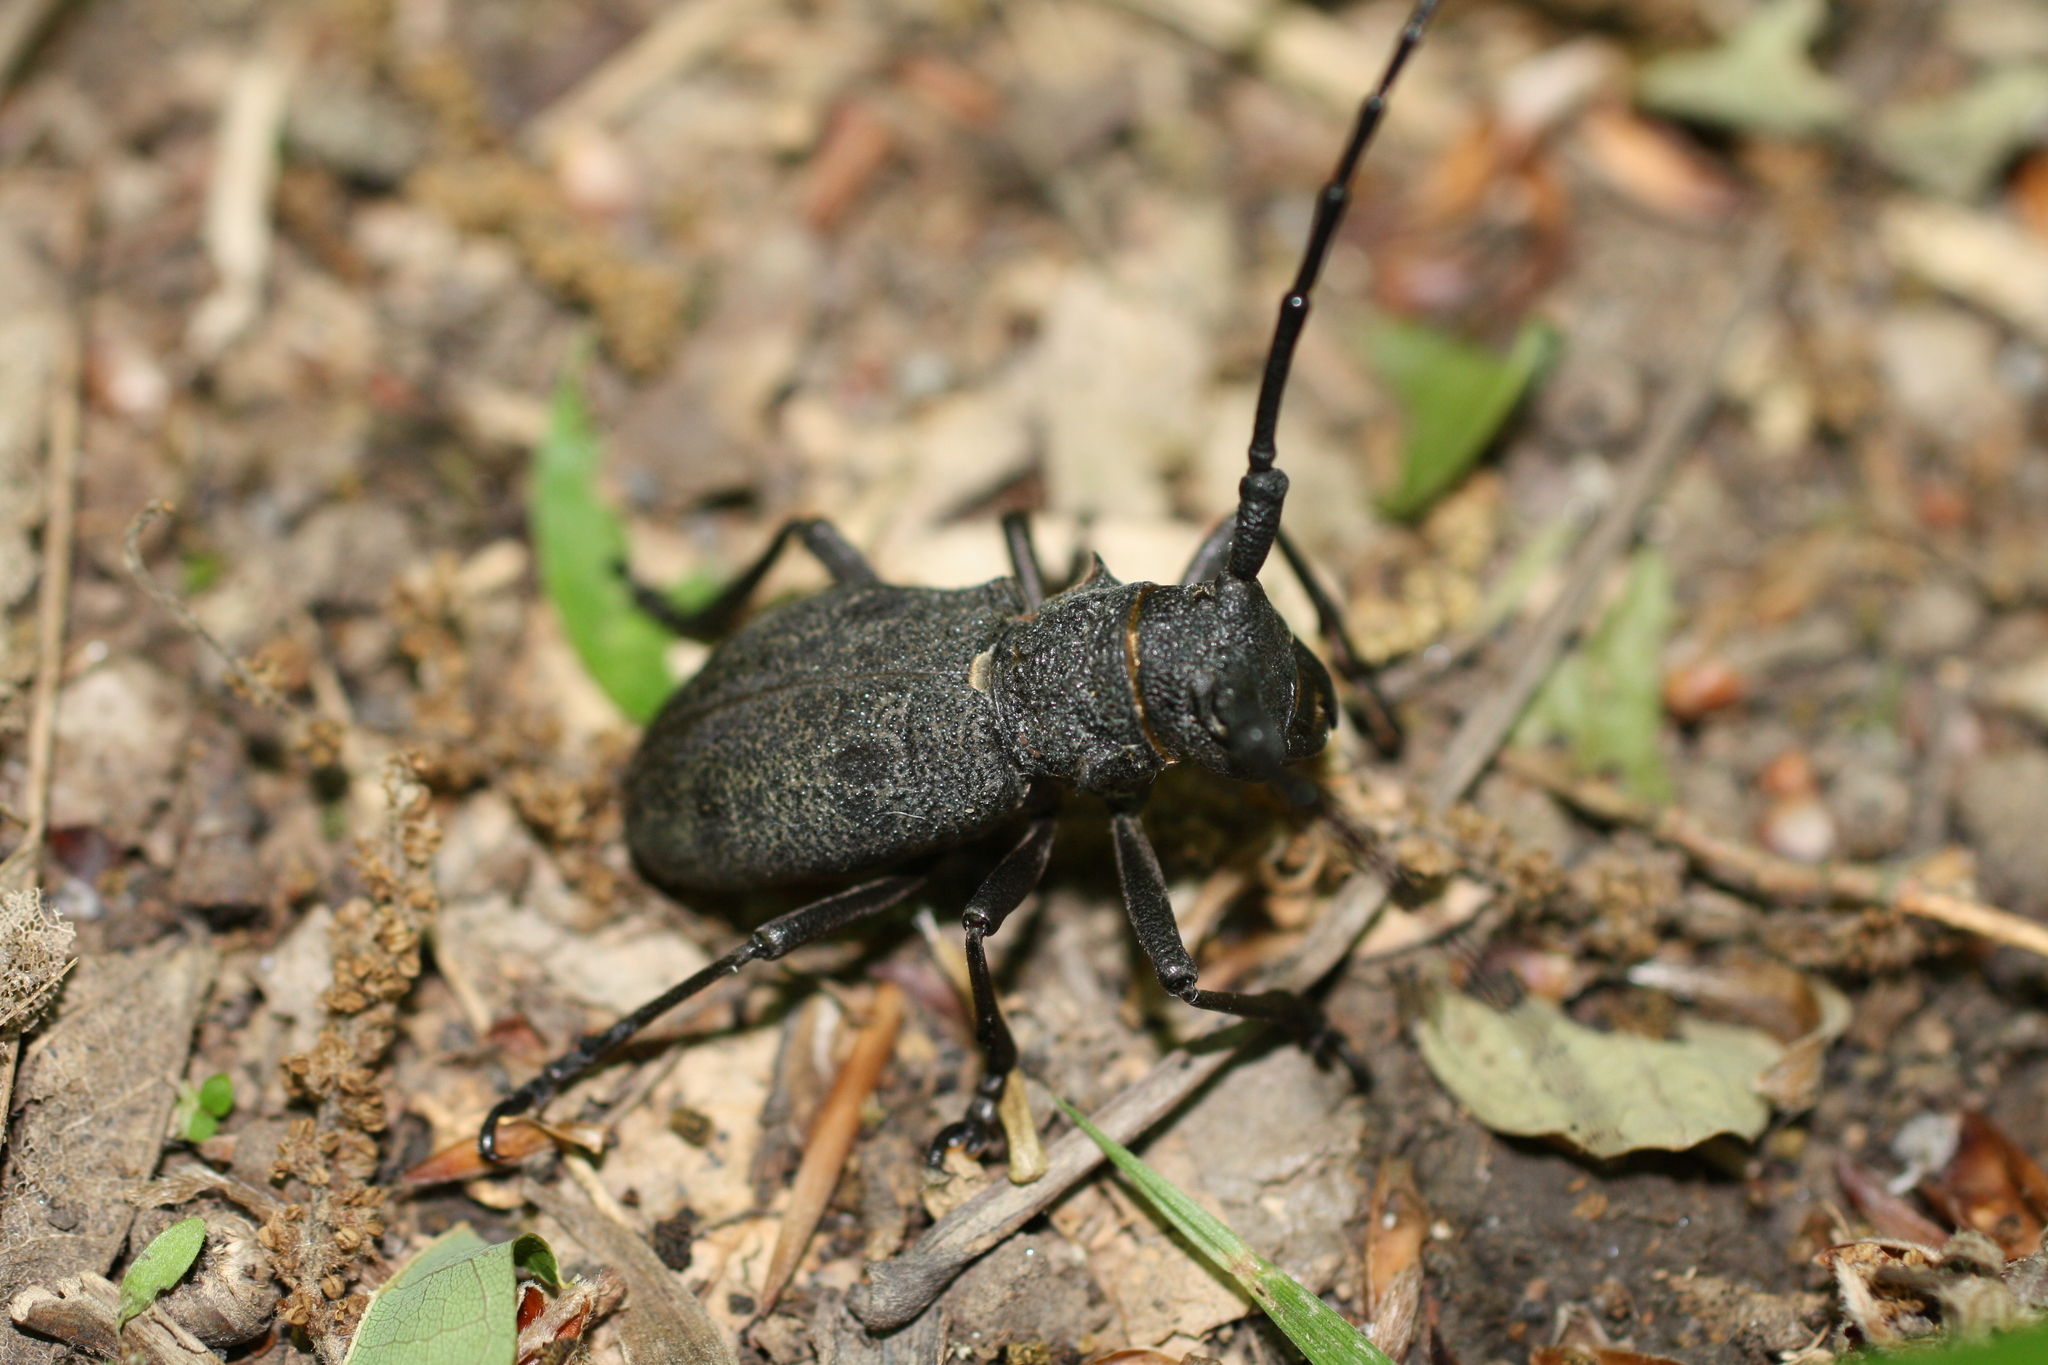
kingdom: Animalia
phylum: Arthropoda
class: Insecta
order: Coleoptera
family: Cerambycidae
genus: Morimus
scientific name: Morimus verecundus
